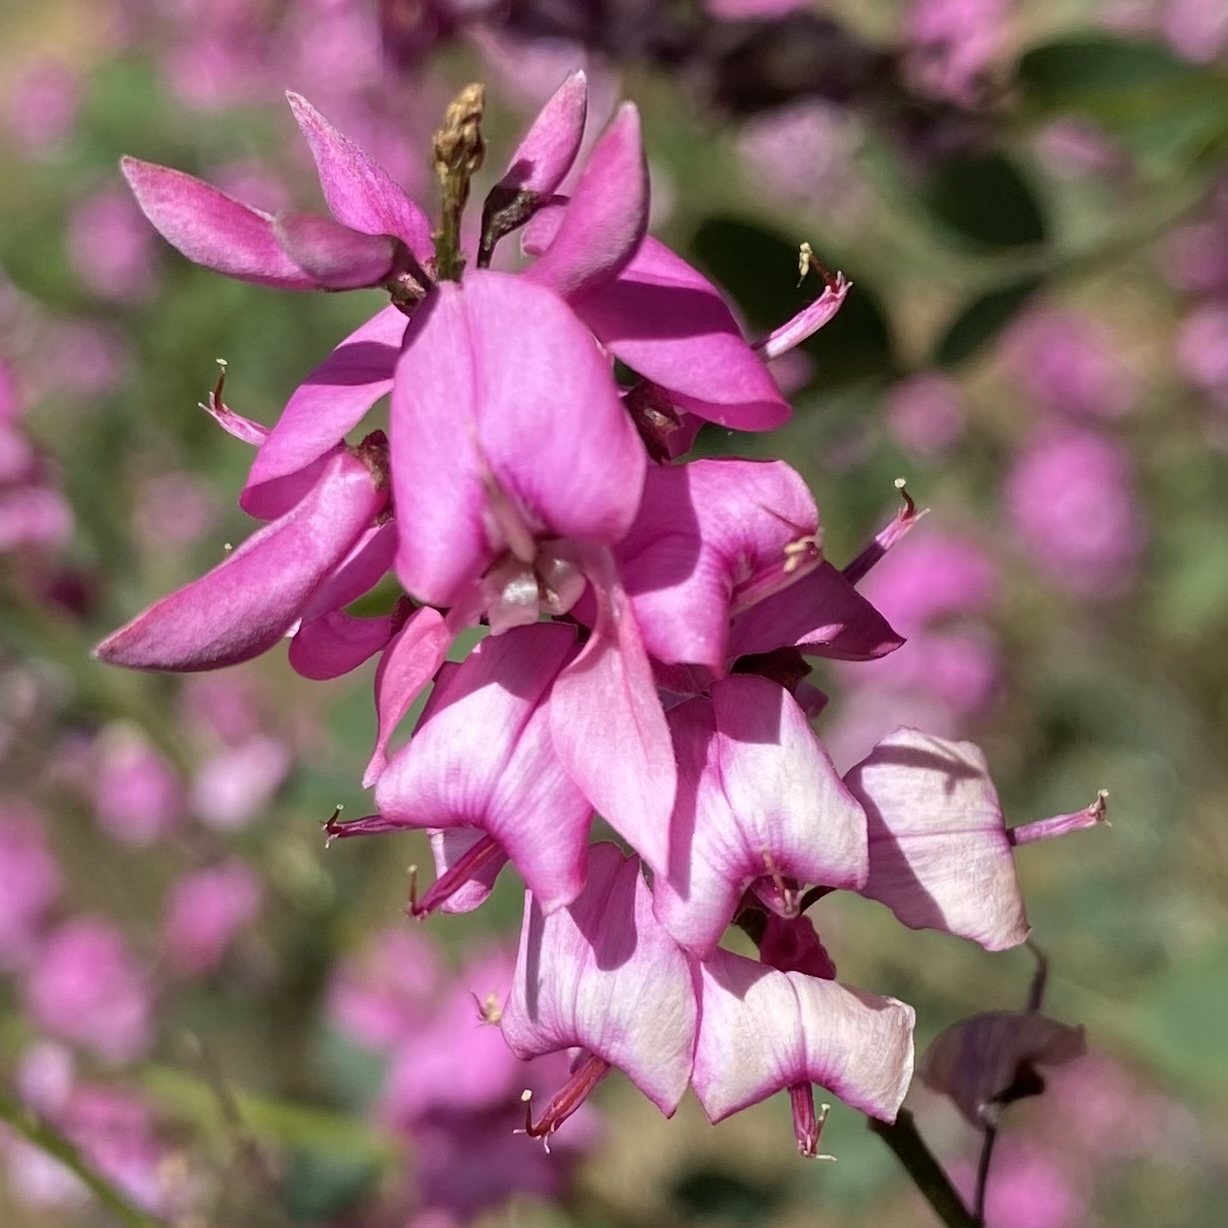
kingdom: Plantae
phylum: Tracheophyta
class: Magnoliopsida
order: Fabales
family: Fabaceae
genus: Indigofera
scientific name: Indigofera australis
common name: Australian indigo
